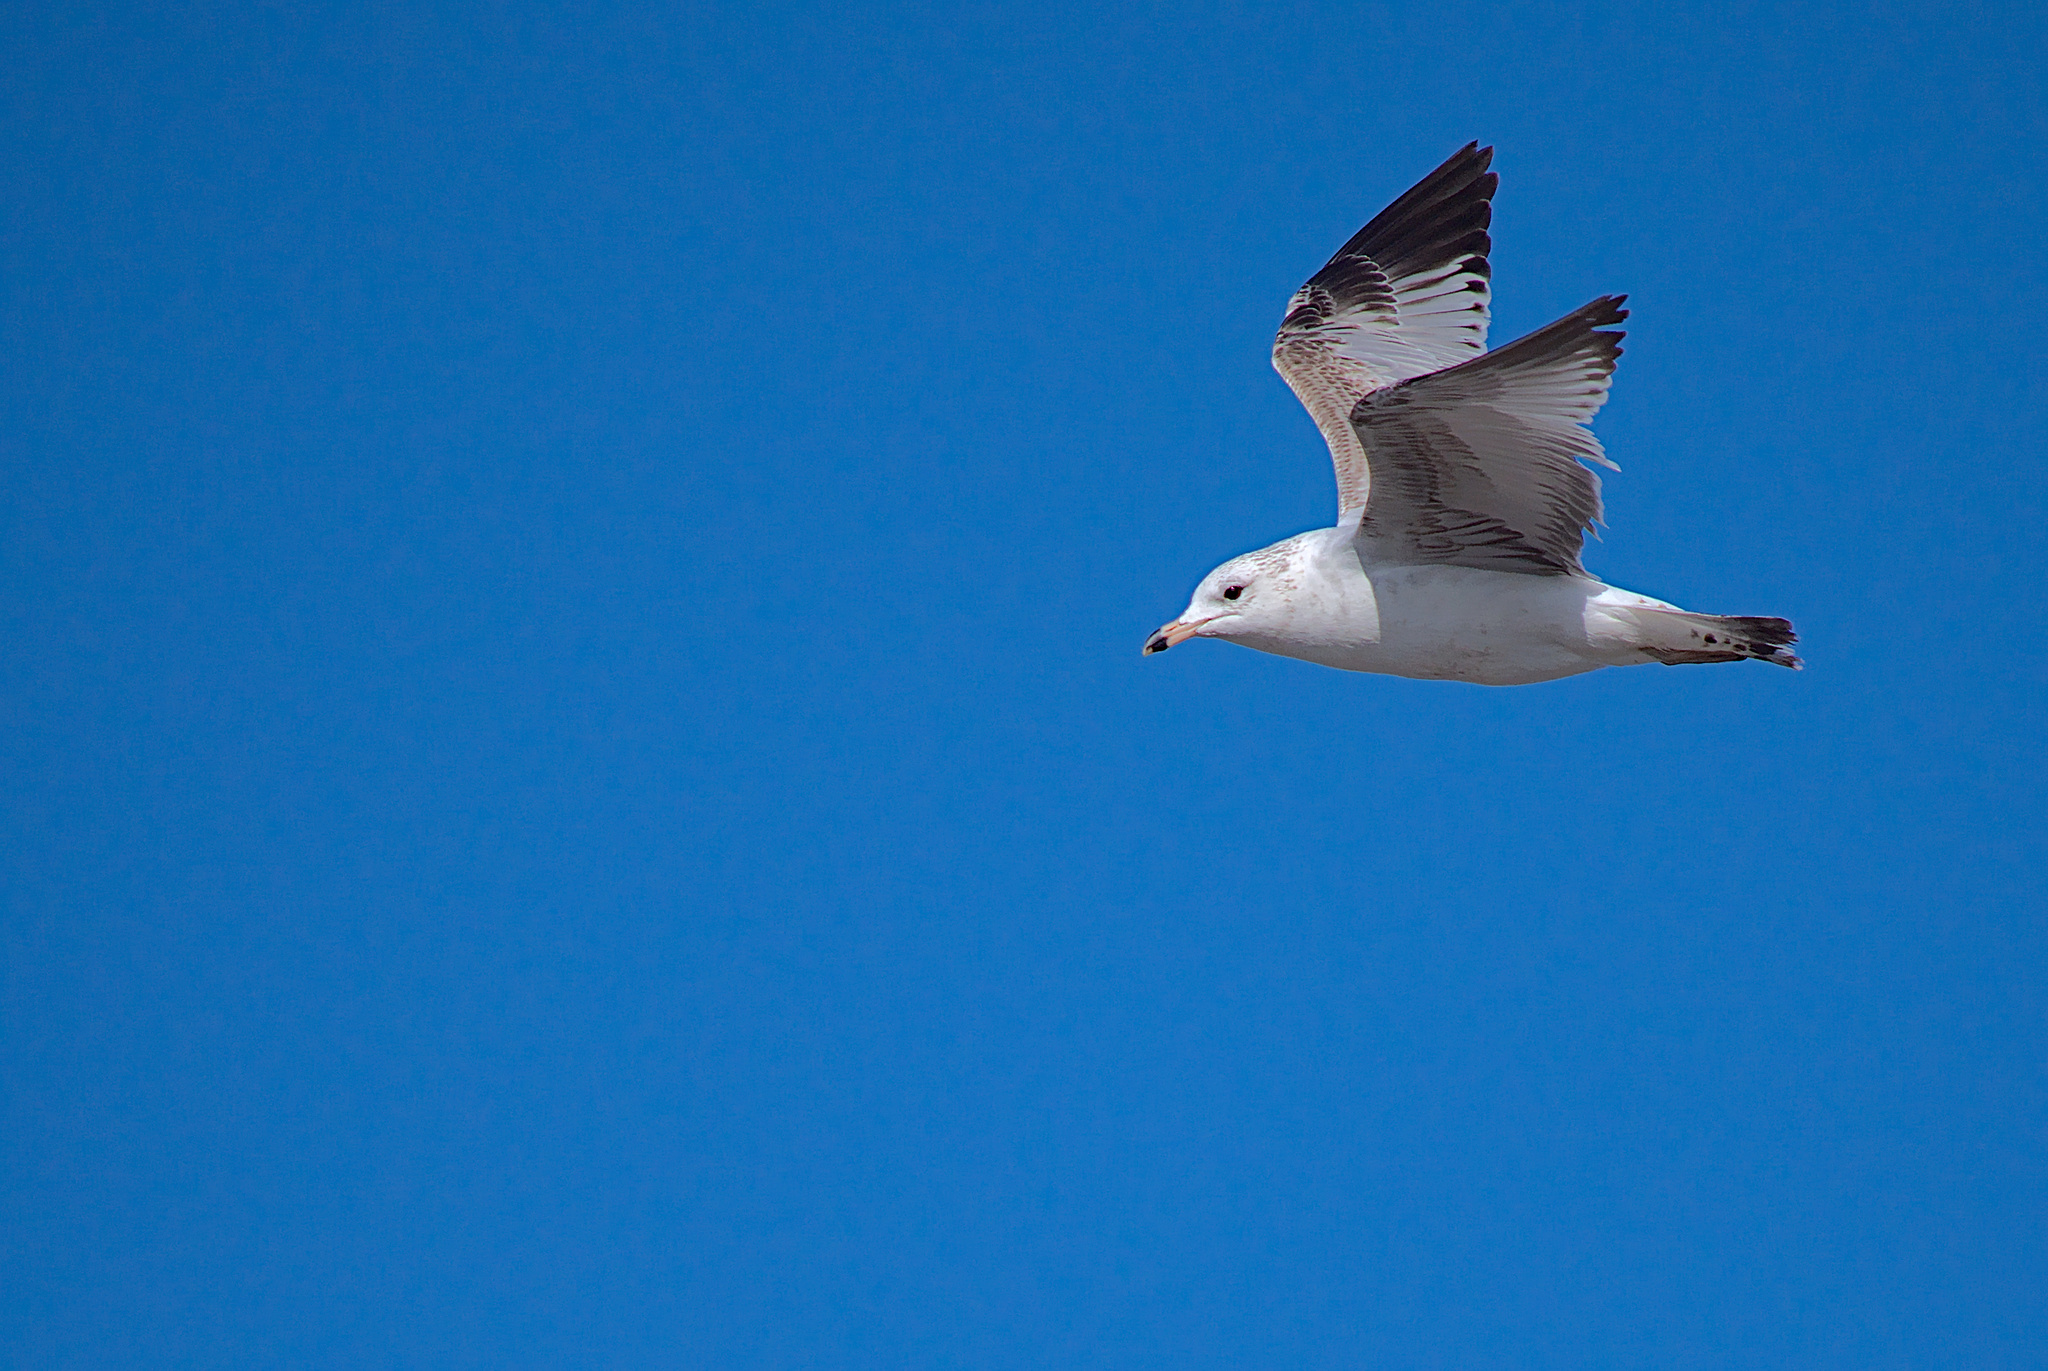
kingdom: Animalia
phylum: Chordata
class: Aves
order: Charadriiformes
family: Laridae
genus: Larus
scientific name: Larus delawarensis
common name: Ring-billed gull
